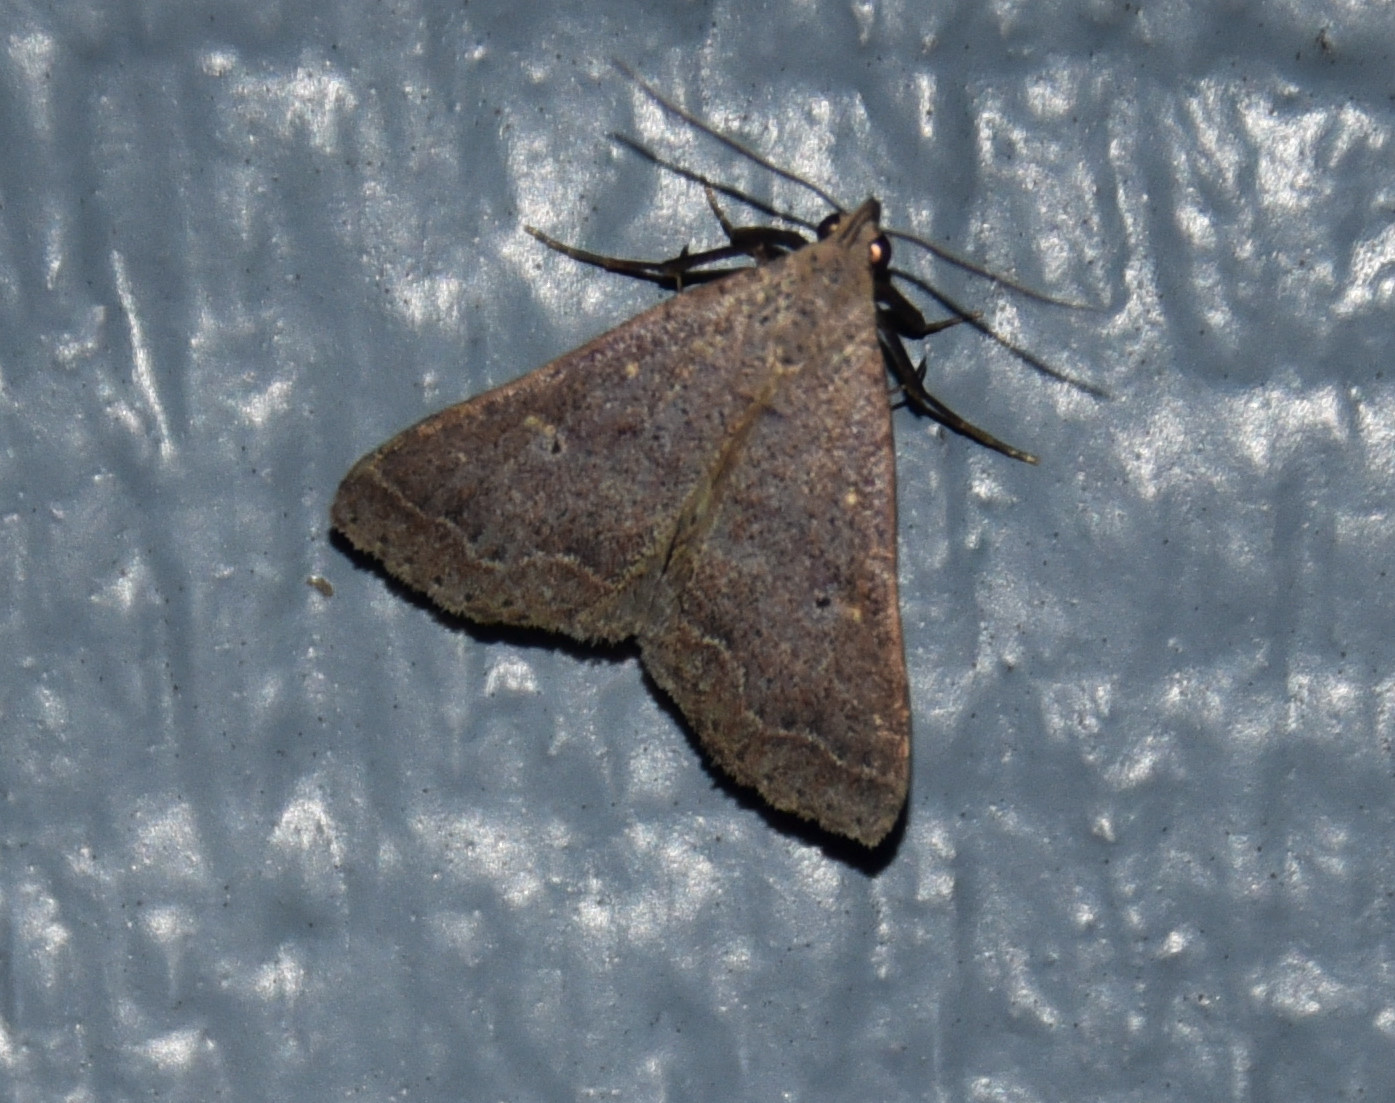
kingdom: Animalia
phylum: Arthropoda
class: Insecta
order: Lepidoptera
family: Erebidae
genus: Bleptina
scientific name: Bleptina caradrinalis
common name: Bent-winged owlet
